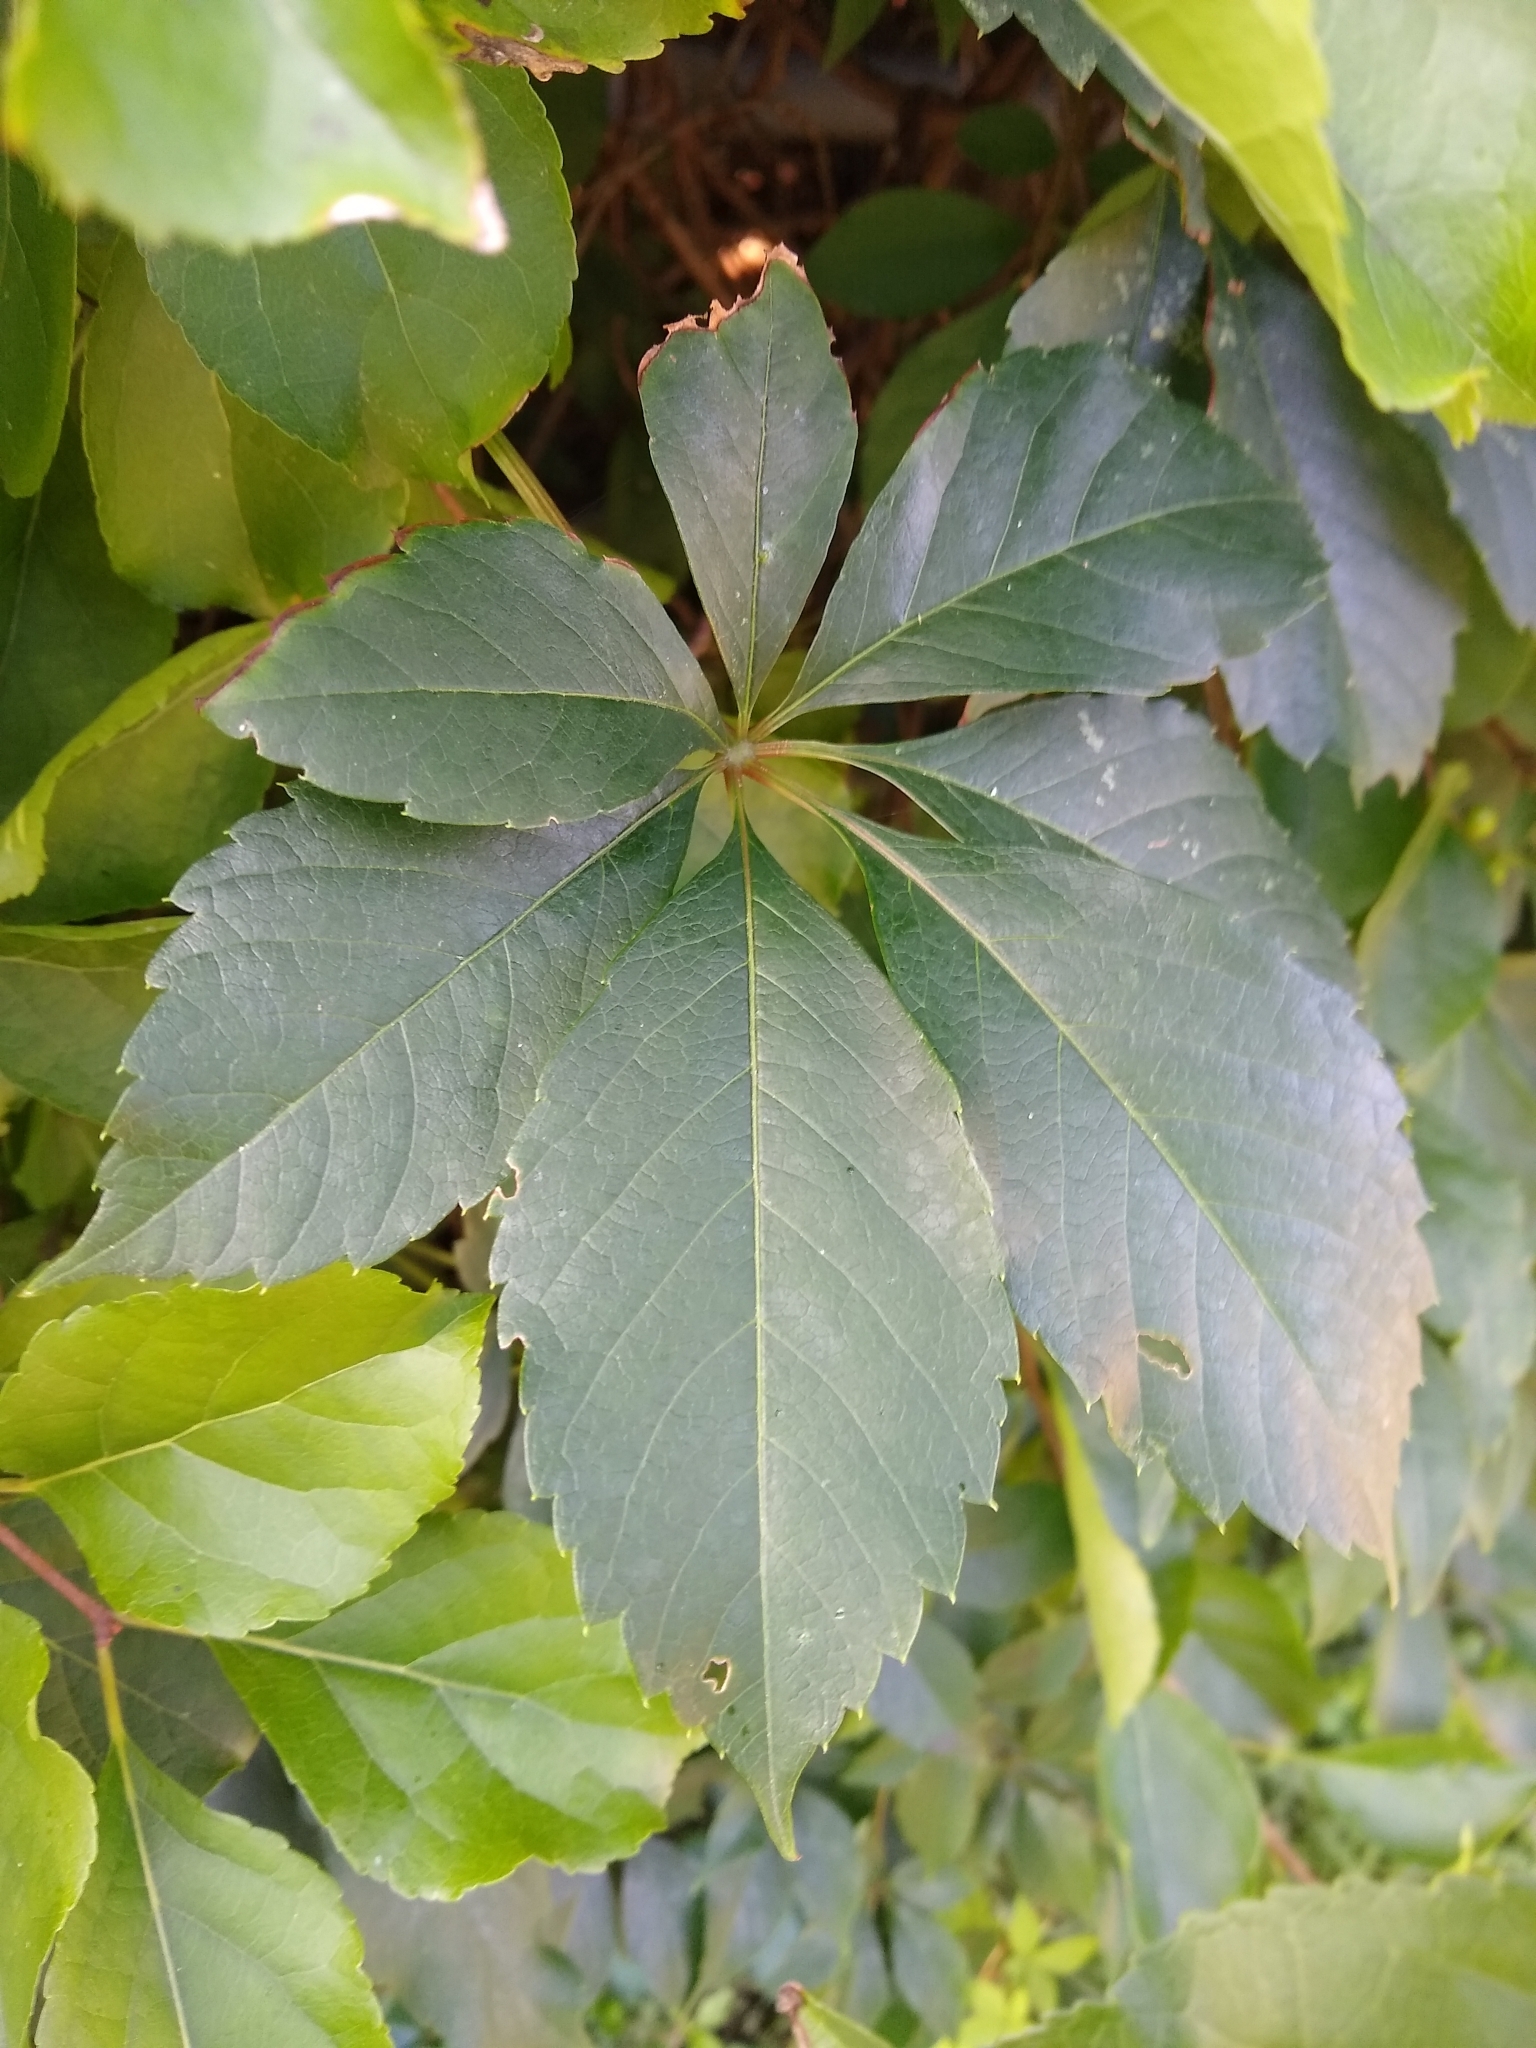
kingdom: Plantae
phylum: Tracheophyta
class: Magnoliopsida
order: Vitales
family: Vitaceae
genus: Parthenocissus
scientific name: Parthenocissus quinquefolia
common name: Virginia-creeper
